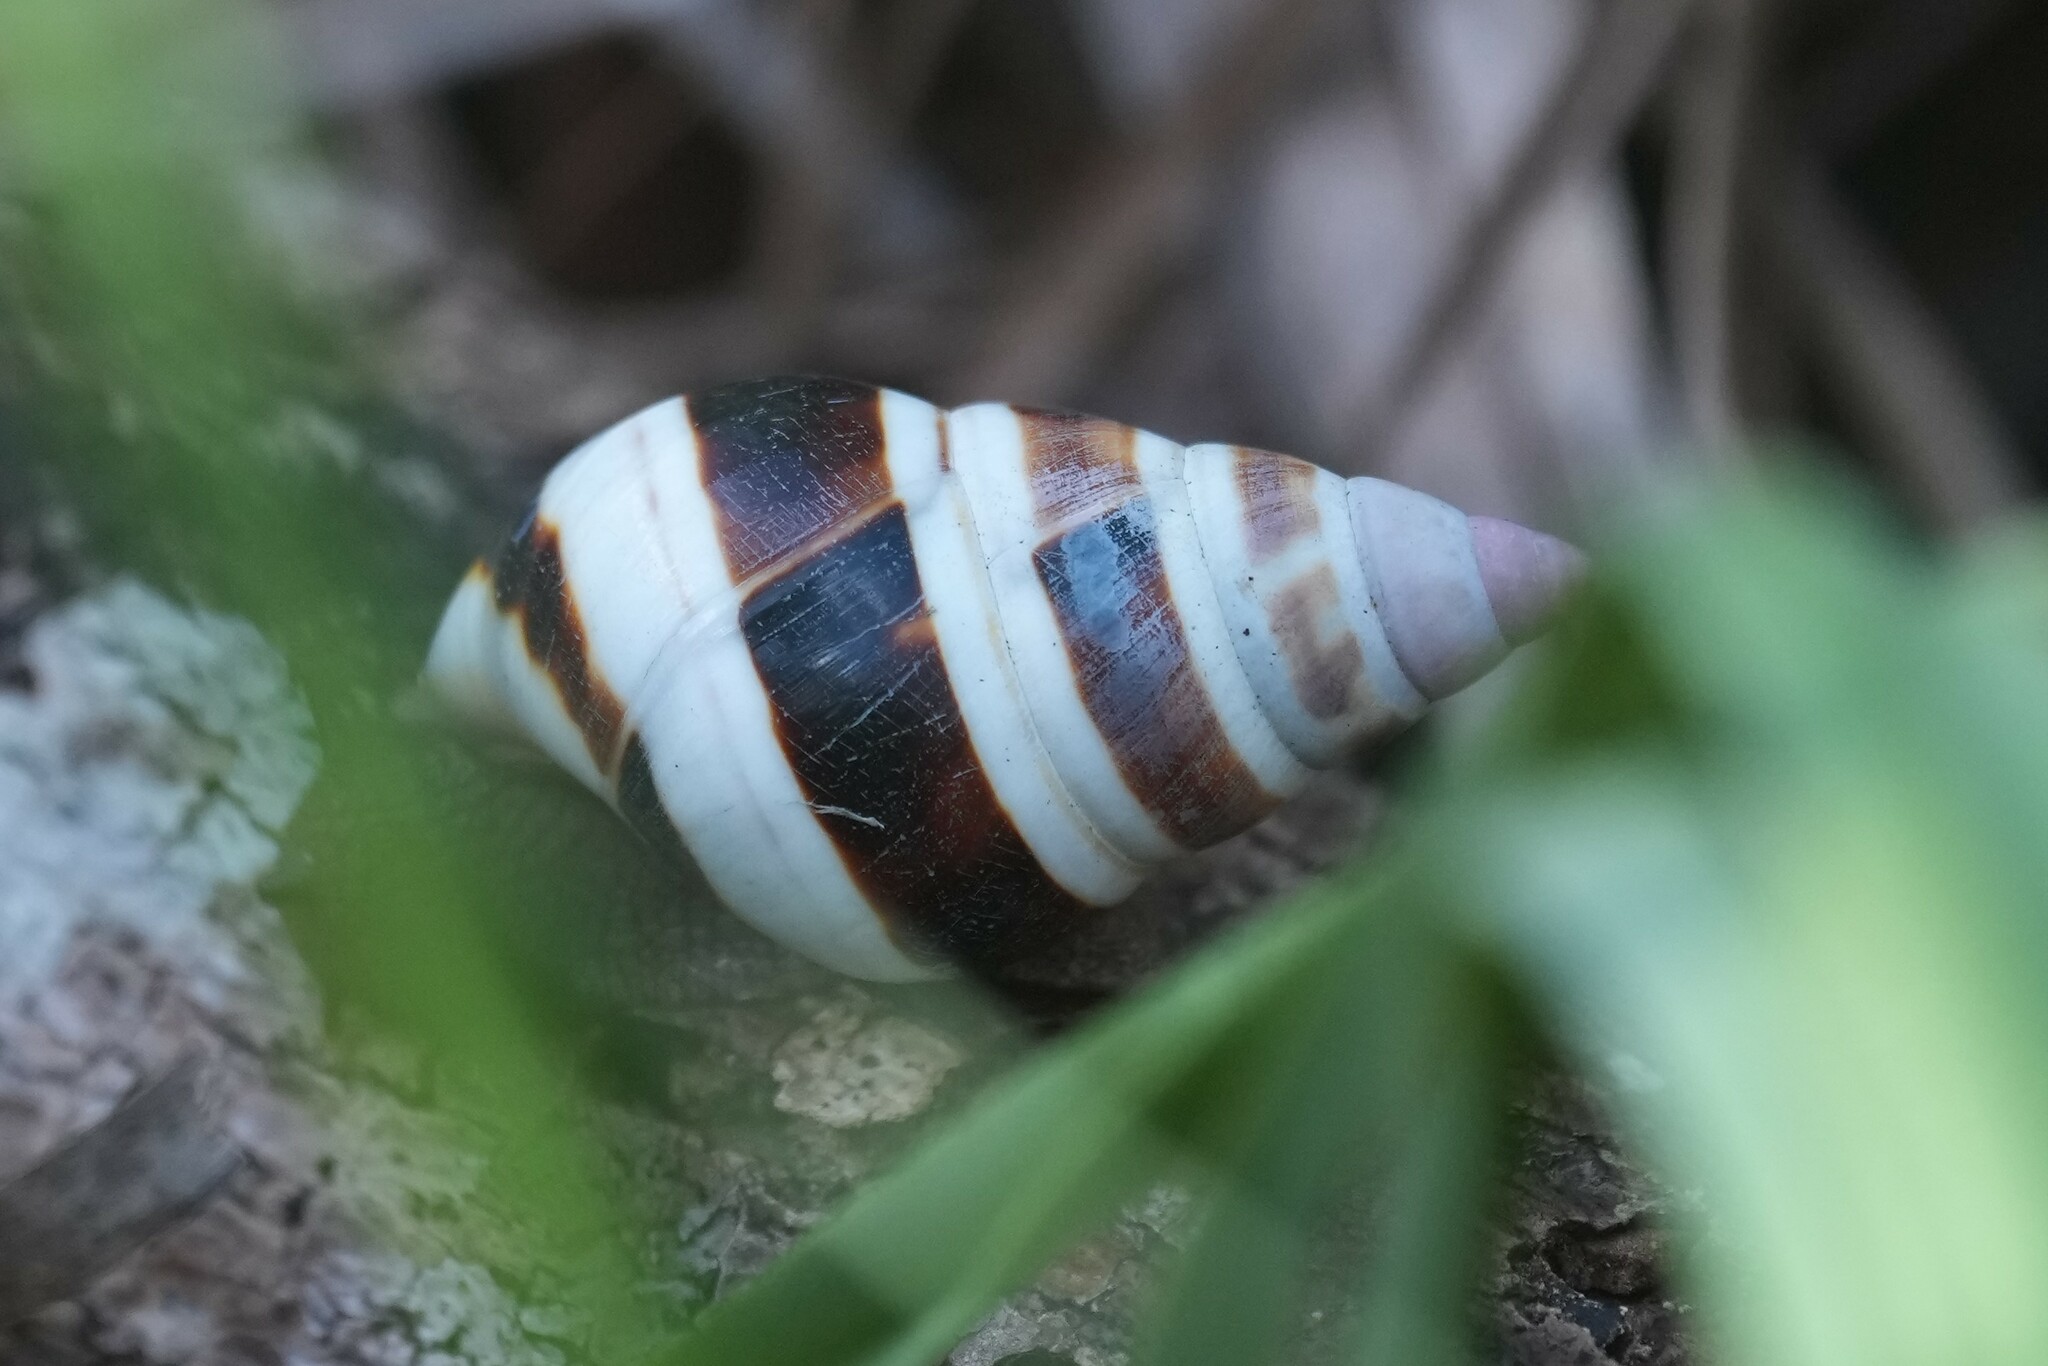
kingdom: Animalia
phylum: Mollusca
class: Gastropoda
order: Stylommatophora
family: Orthalicidae
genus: Liguus
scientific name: Liguus fasciatus
